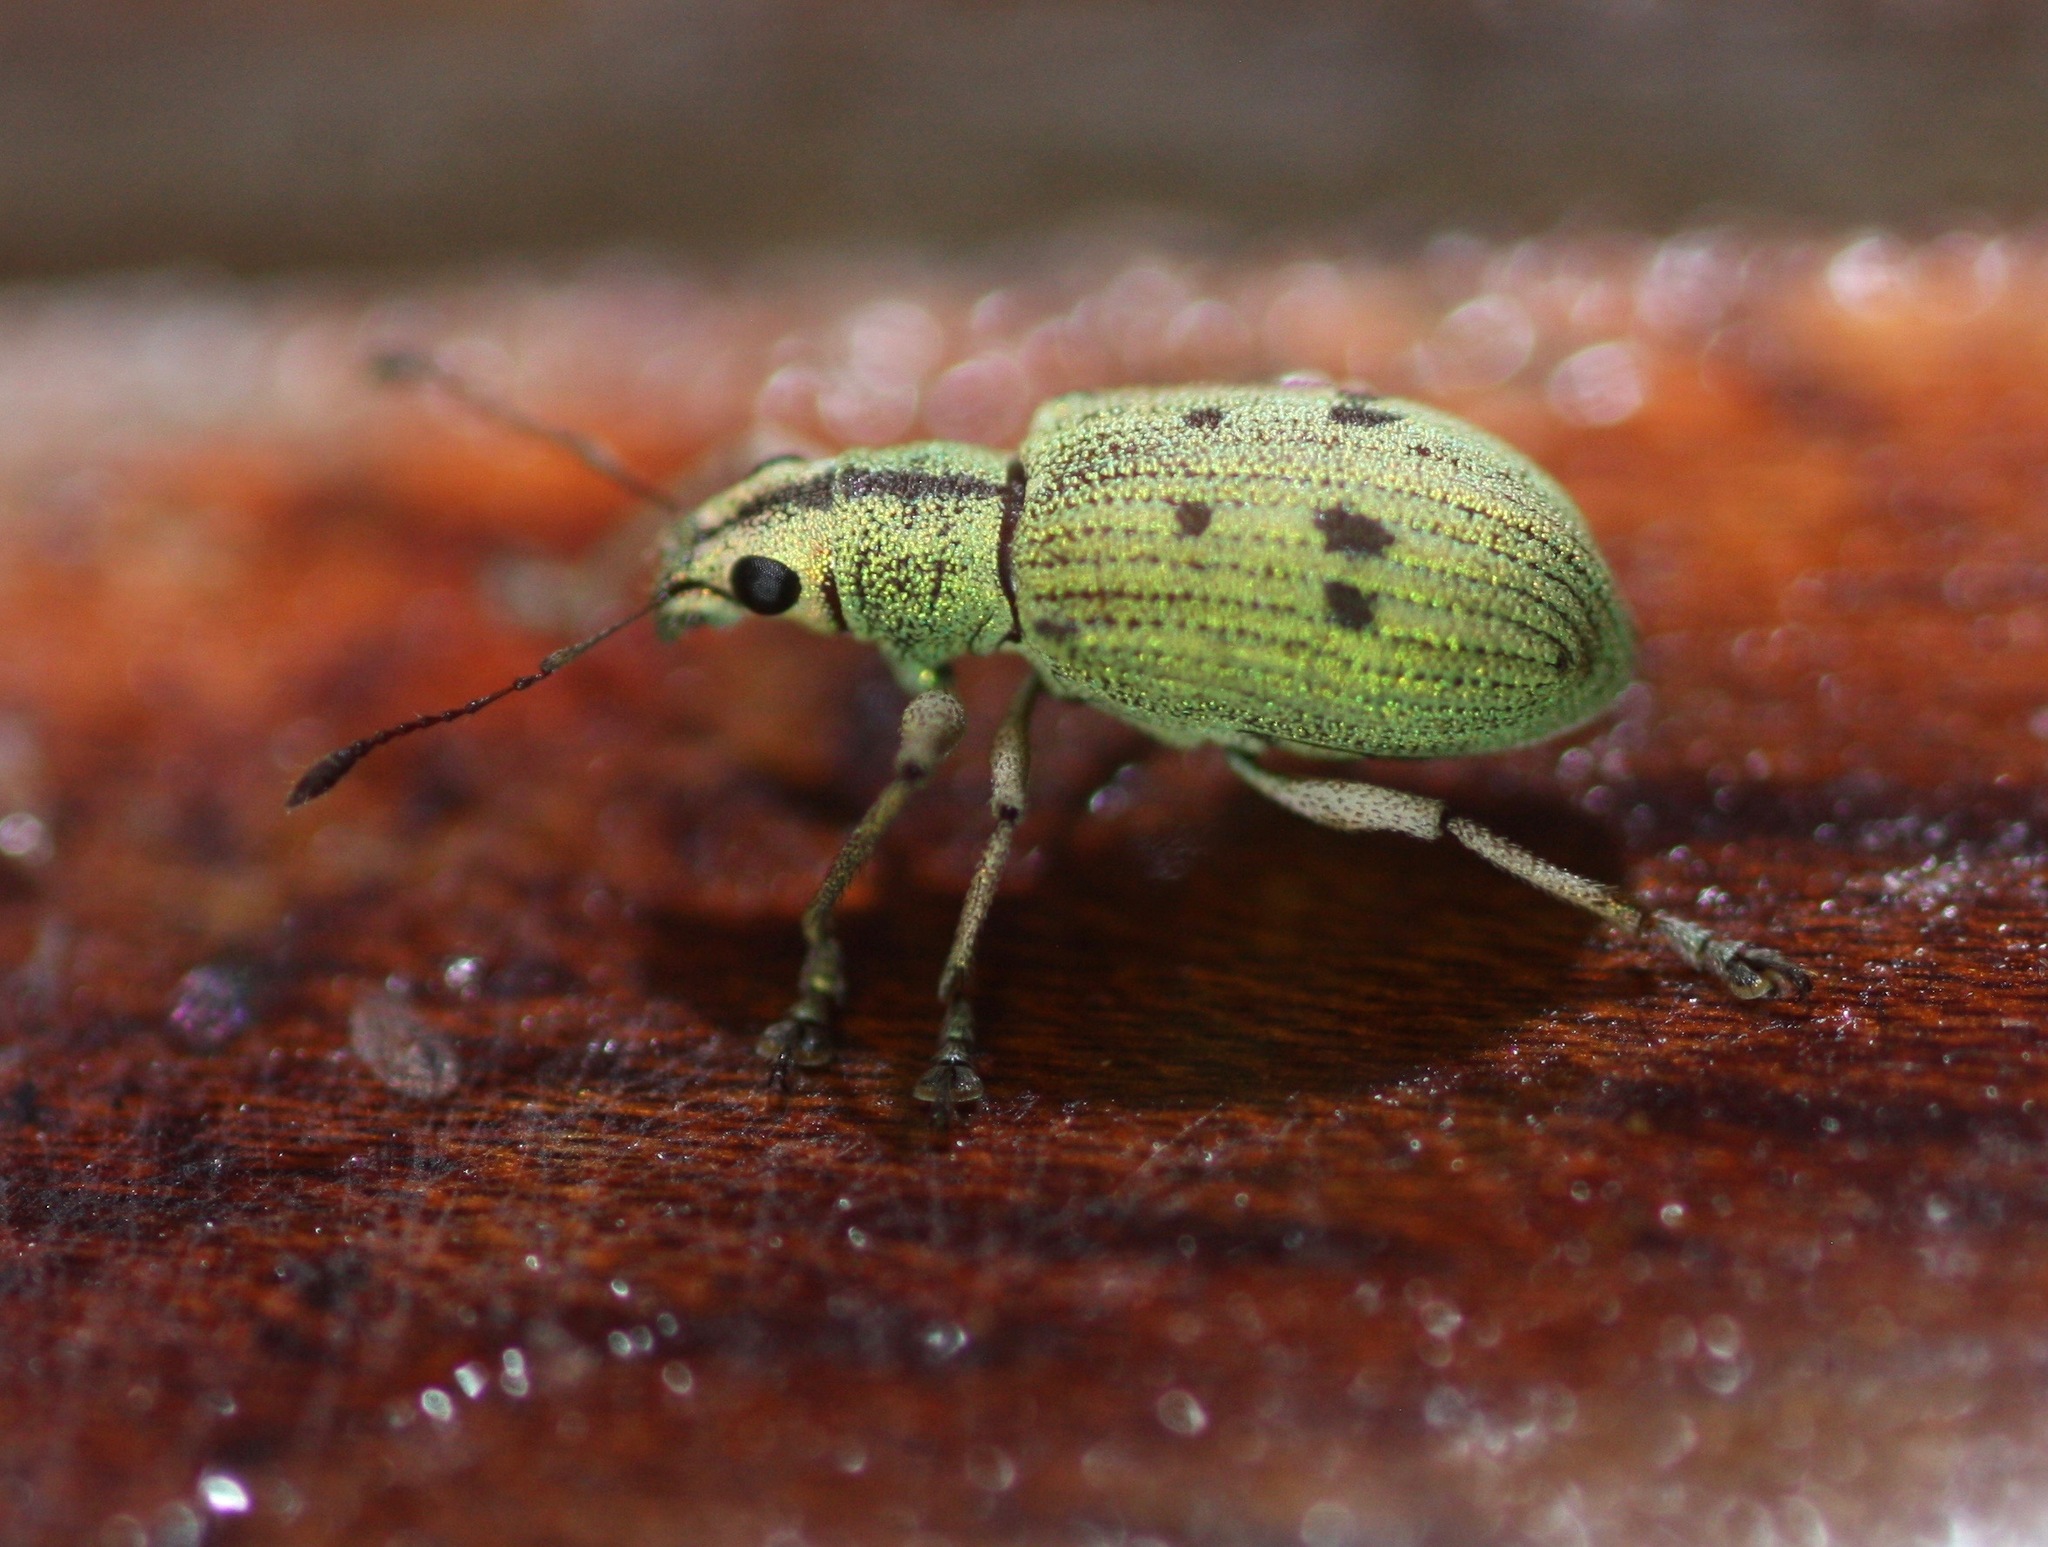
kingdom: Animalia
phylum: Arthropoda
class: Insecta
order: Coleoptera
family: Curculionidae
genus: Macrostylus
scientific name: Macrostylus nebulosus
